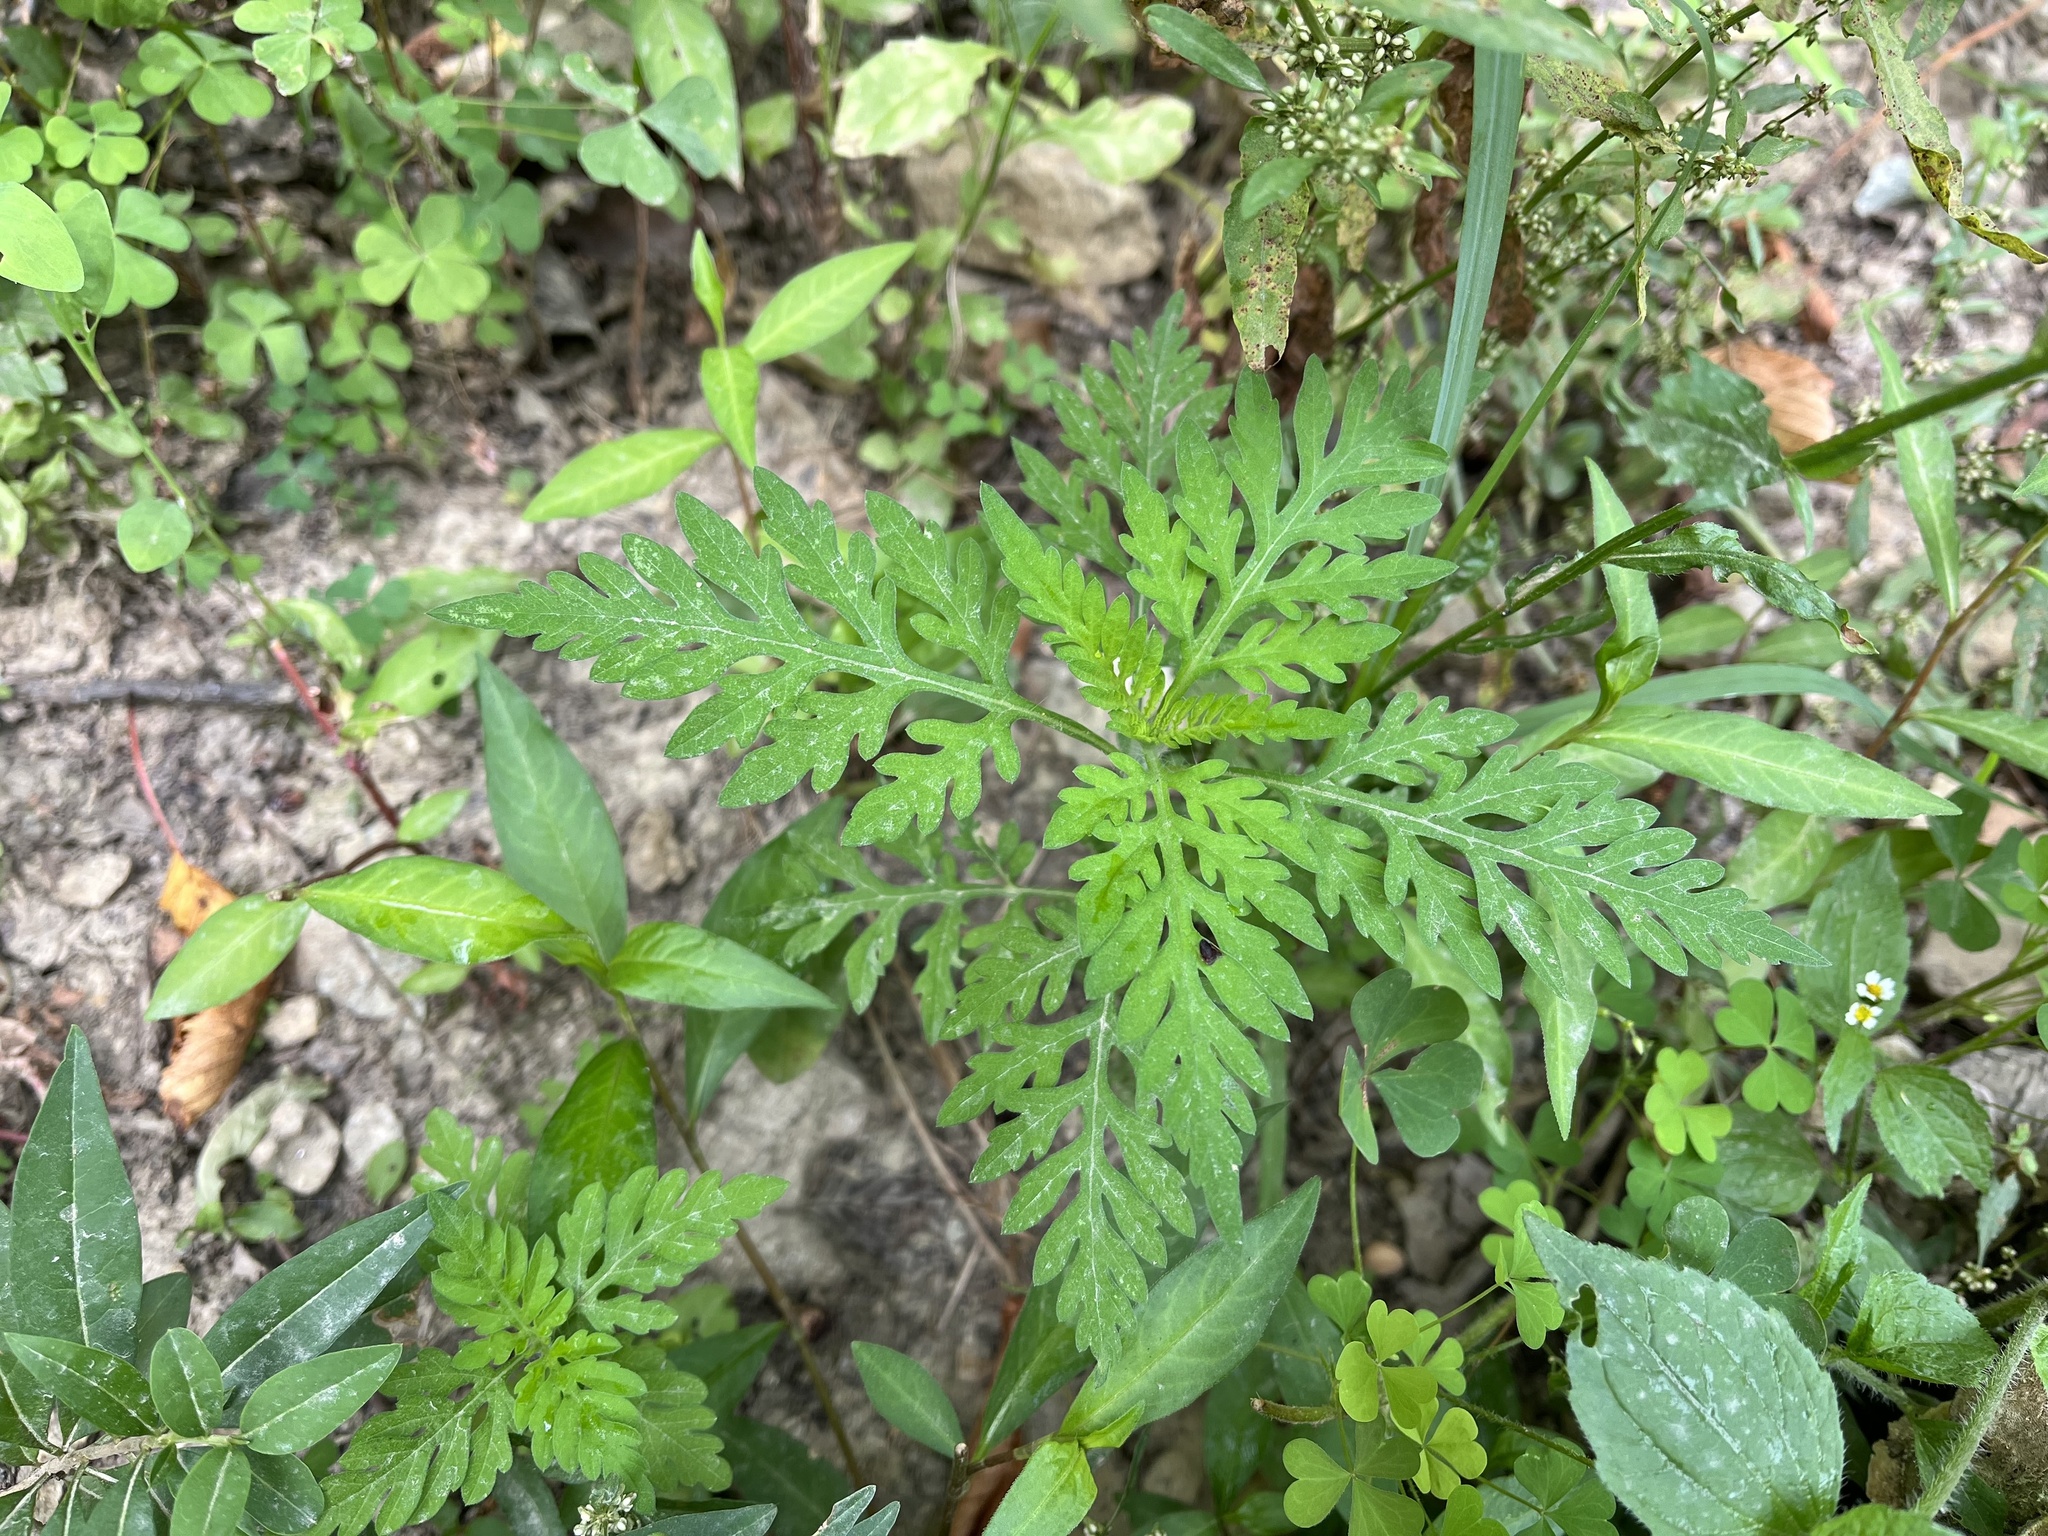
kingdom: Plantae
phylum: Tracheophyta
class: Magnoliopsida
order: Asterales
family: Asteraceae
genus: Ambrosia
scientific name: Ambrosia artemisiifolia
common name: Annual ragweed
